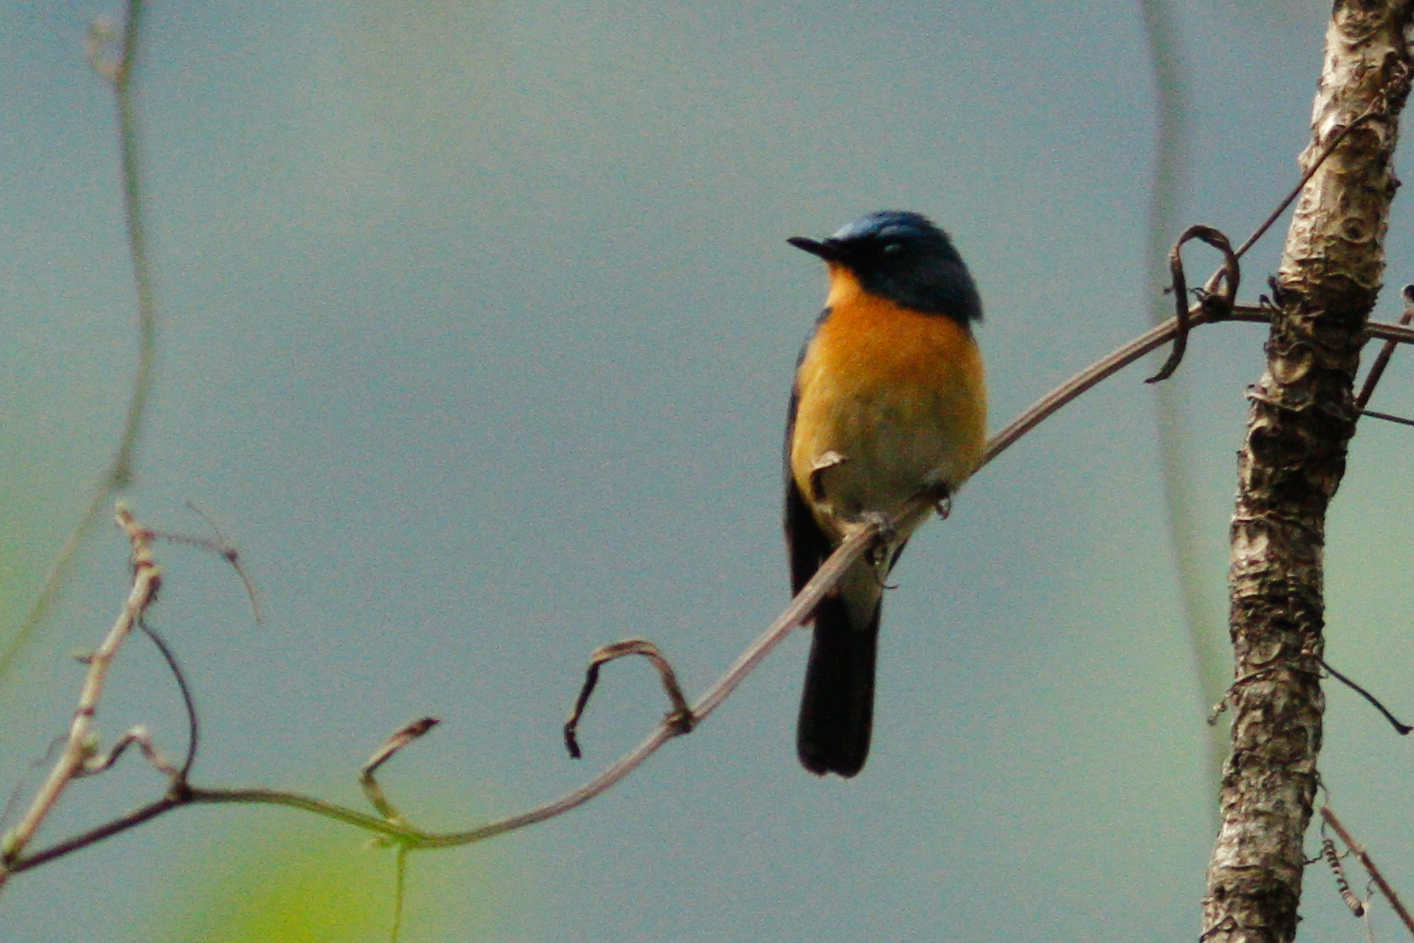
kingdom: Animalia
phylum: Chordata
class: Aves
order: Passeriformes
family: Muscicapidae
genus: Cyornis
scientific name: Cyornis whitei
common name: Hill blue flycatcher
